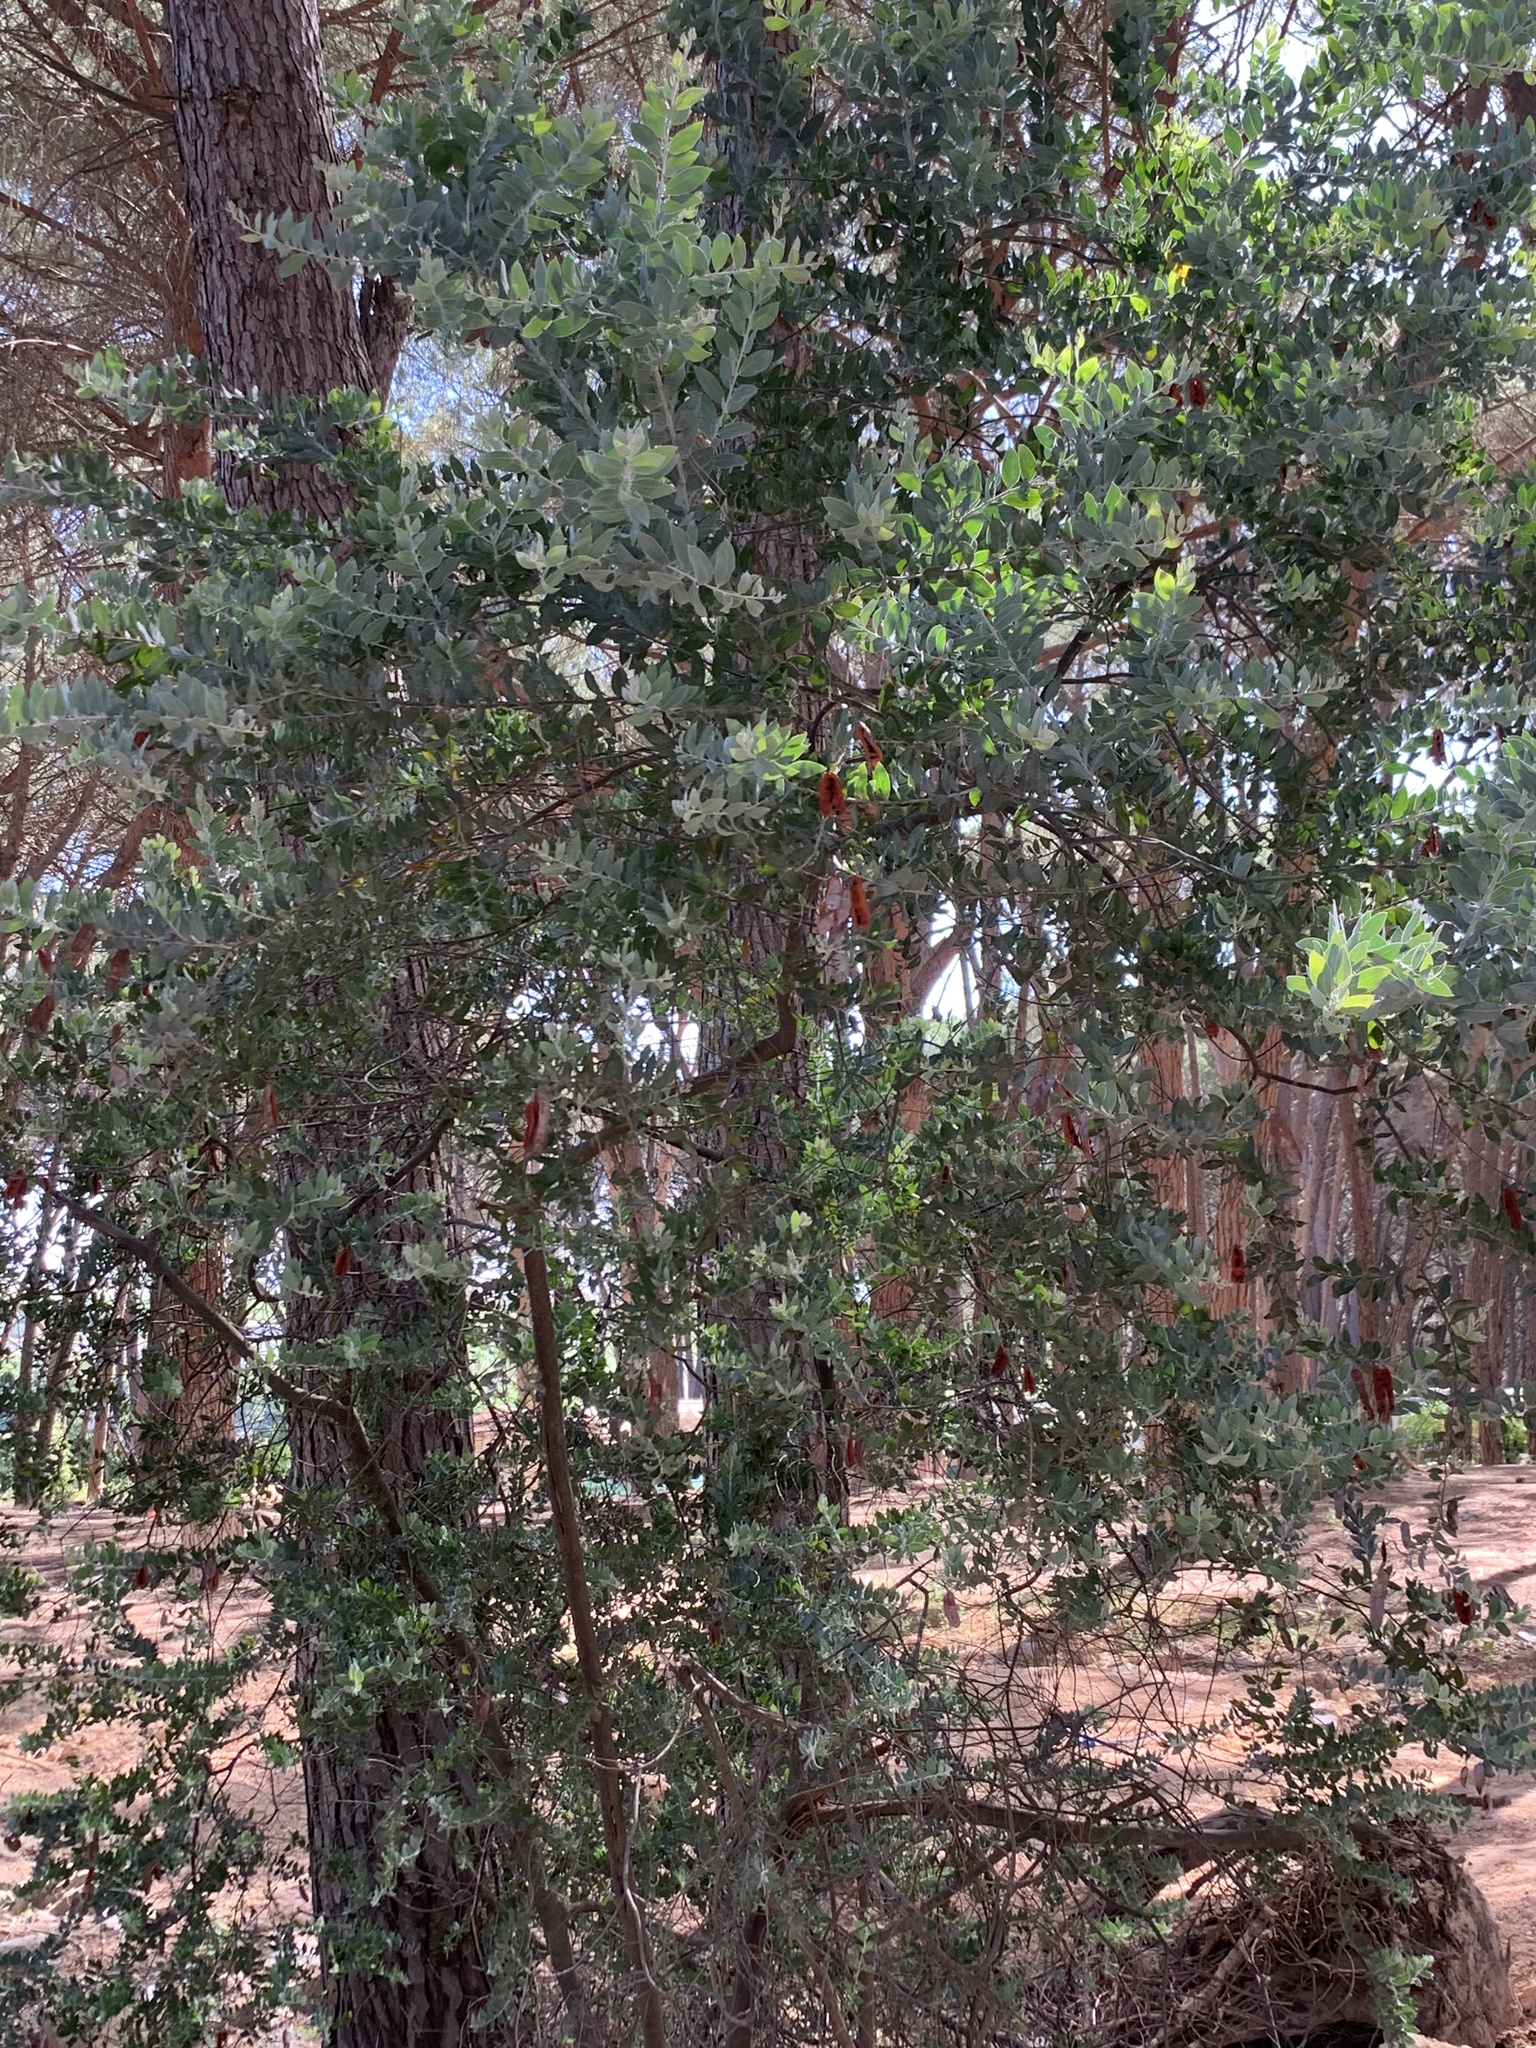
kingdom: Plantae
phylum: Tracheophyta
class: Magnoliopsida
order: Fabales
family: Fabaceae
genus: Acacia
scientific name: Acacia podalyriifolia
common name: Pearl wattle
